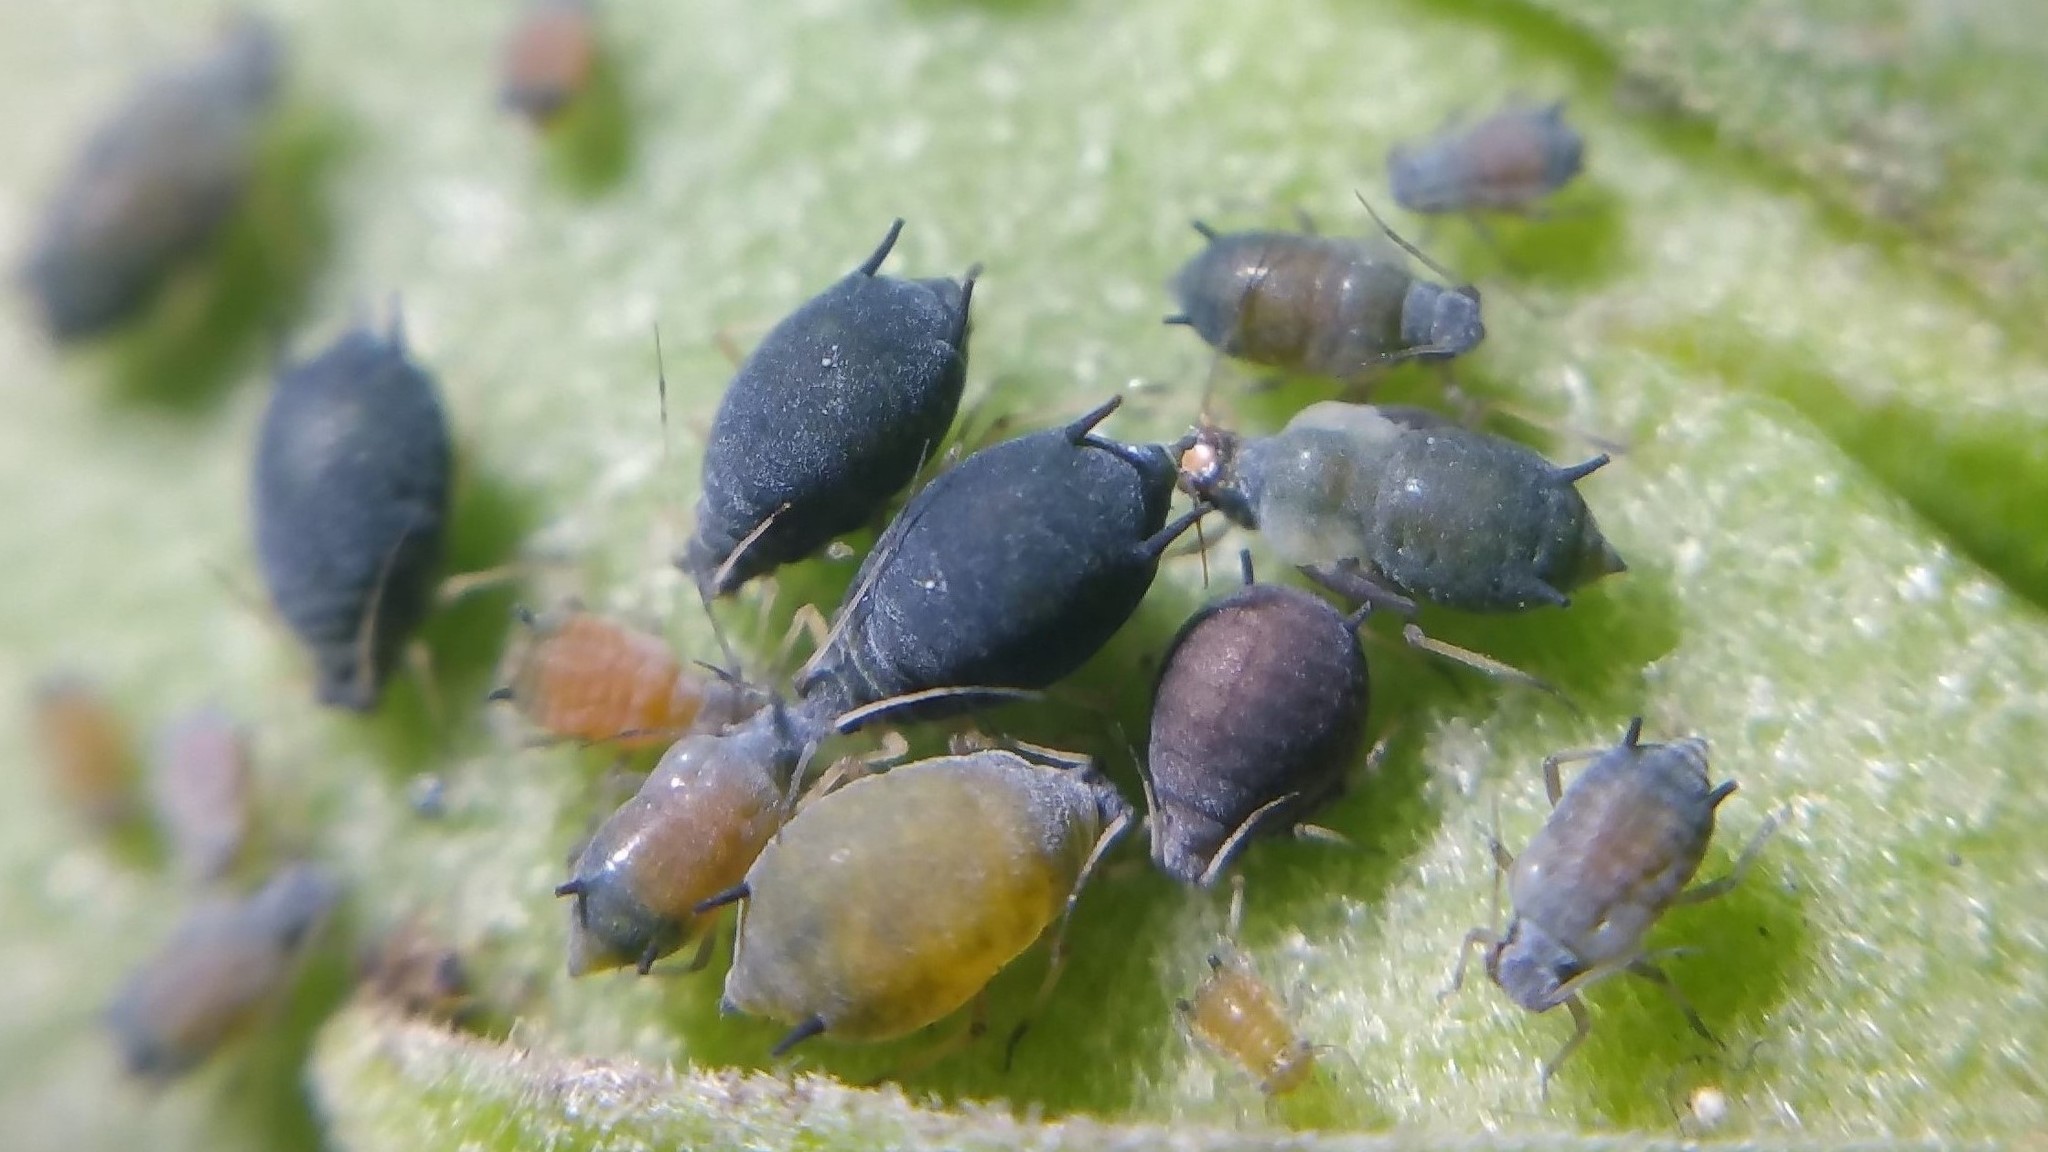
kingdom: Animalia
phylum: Arthropoda
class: Insecta
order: Hemiptera
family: Aphididae
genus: Aphis
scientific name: Aphis gossypii
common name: Melon aphid
